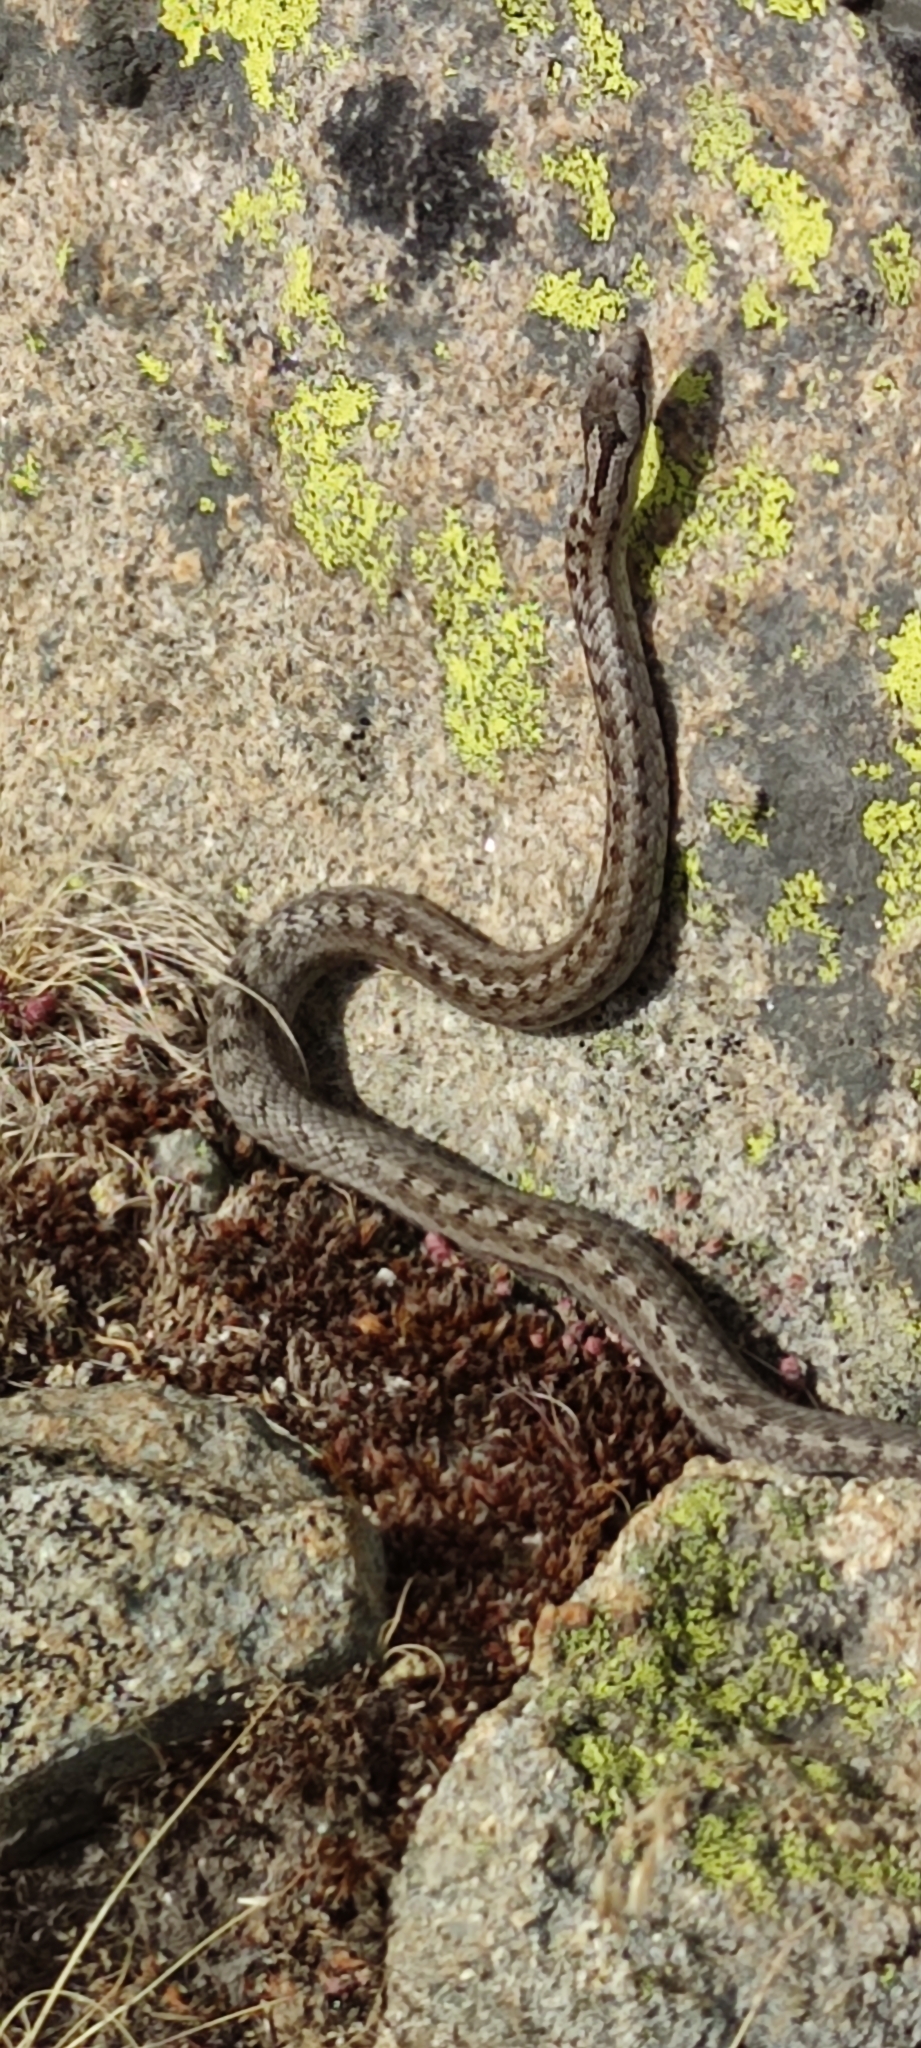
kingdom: Animalia
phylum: Chordata
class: Squamata
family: Colubridae
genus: Coronella
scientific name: Coronella austriaca
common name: Smooth snake
